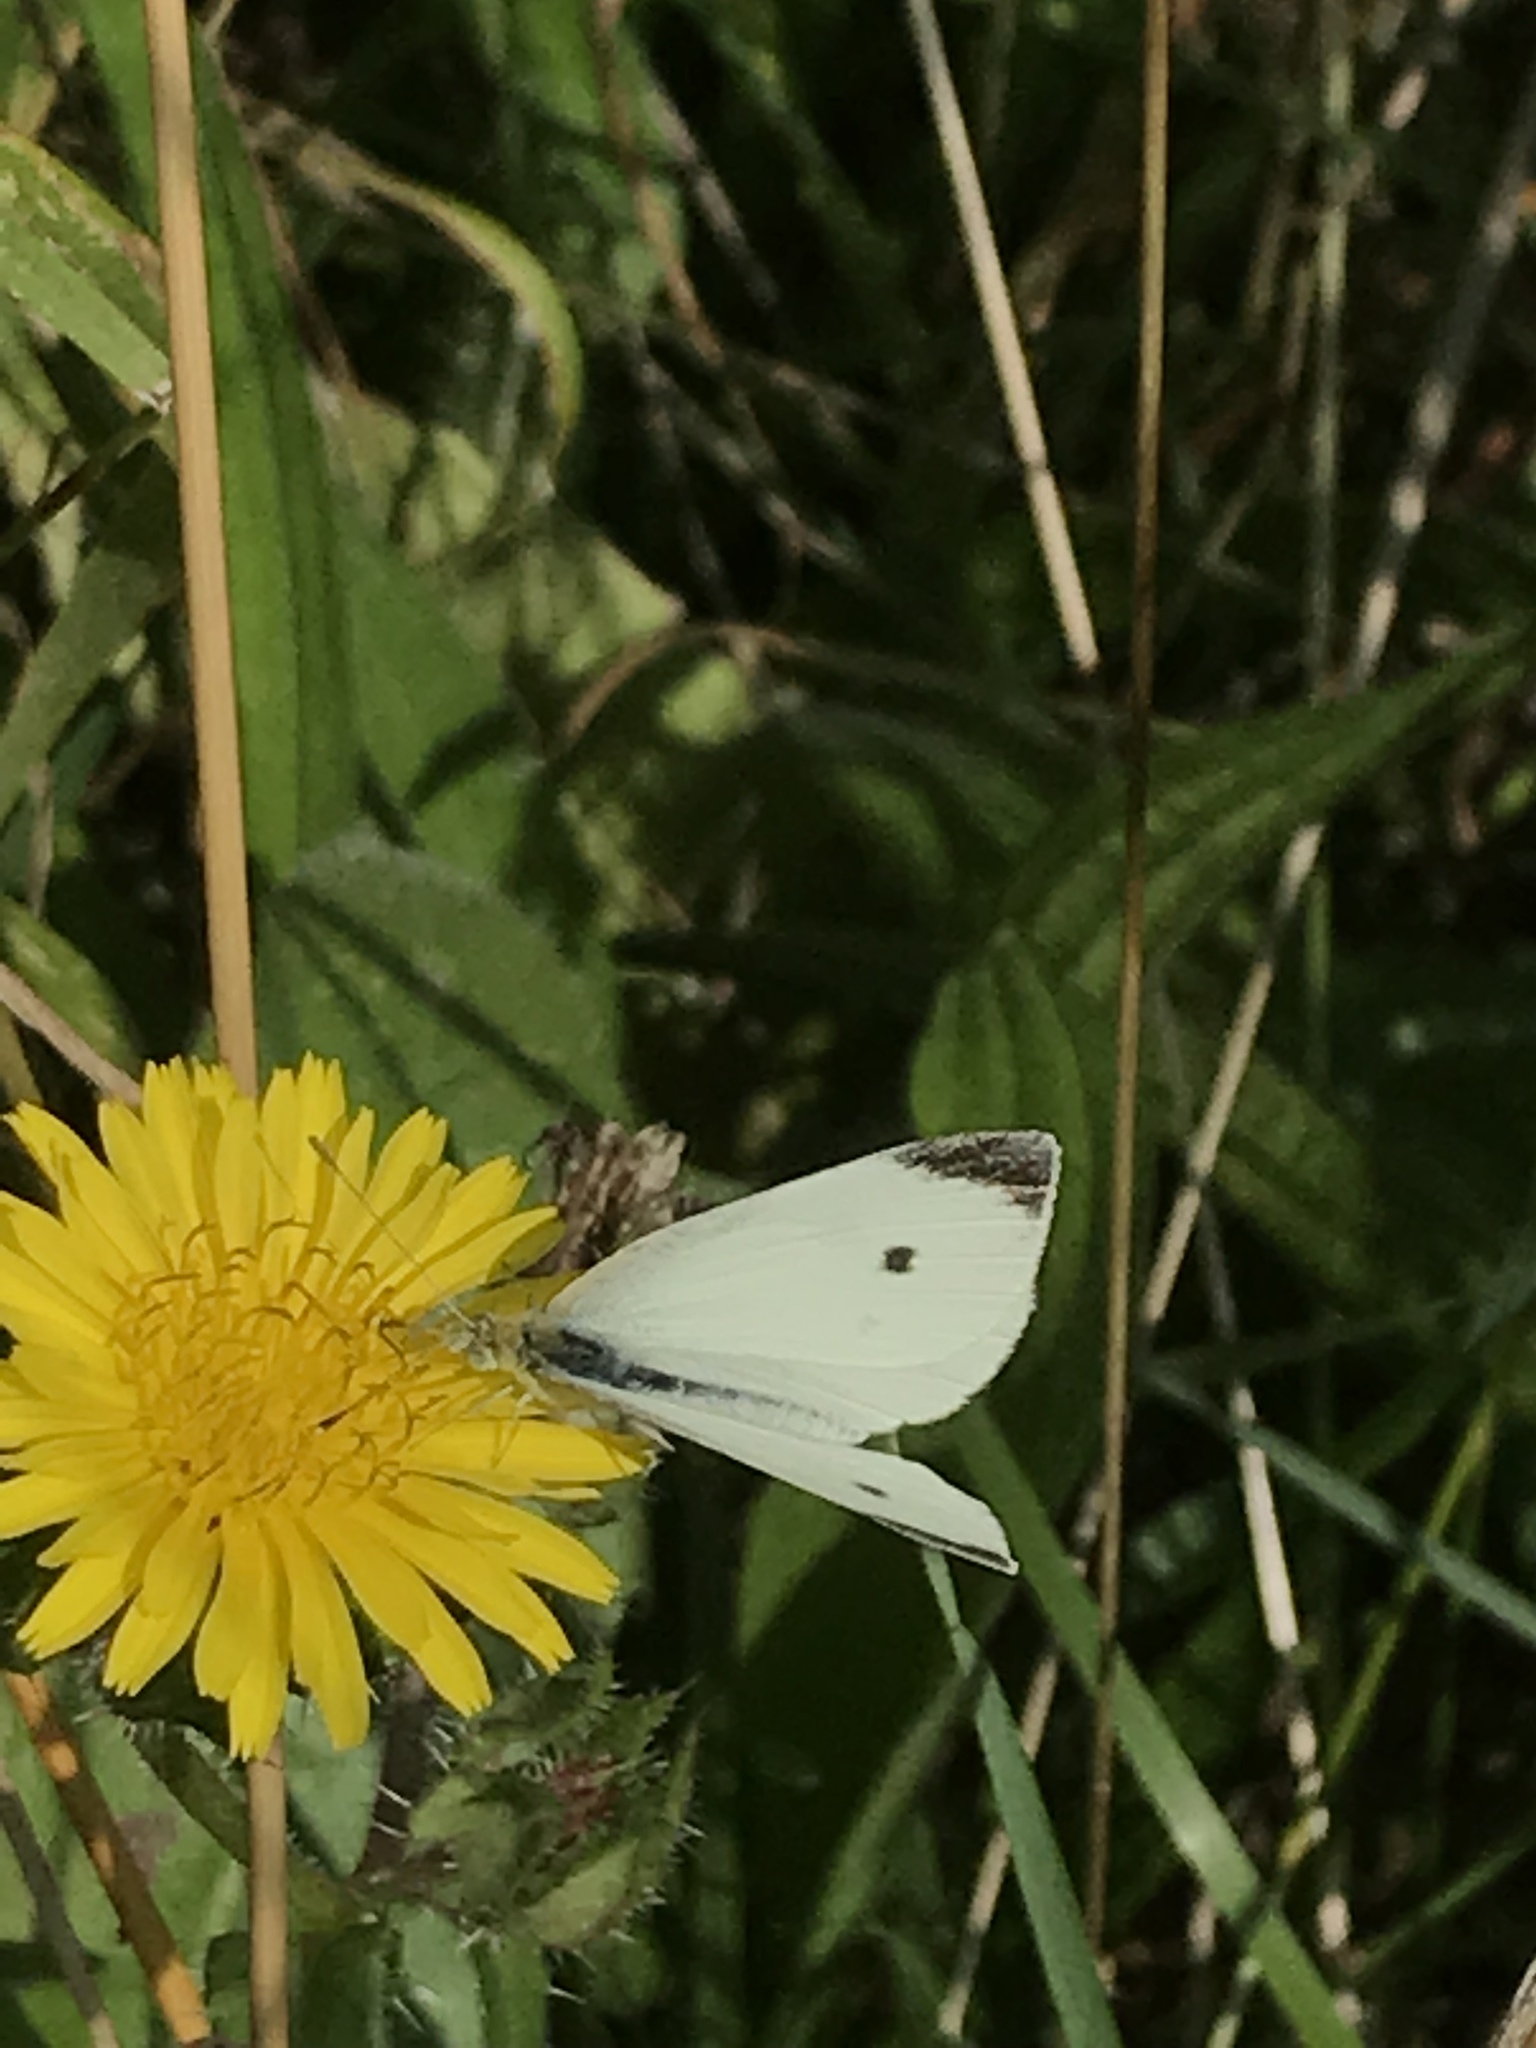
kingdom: Animalia
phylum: Arthropoda
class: Insecta
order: Lepidoptera
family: Pieridae
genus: Pieris
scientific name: Pieris rapae
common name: Small white
